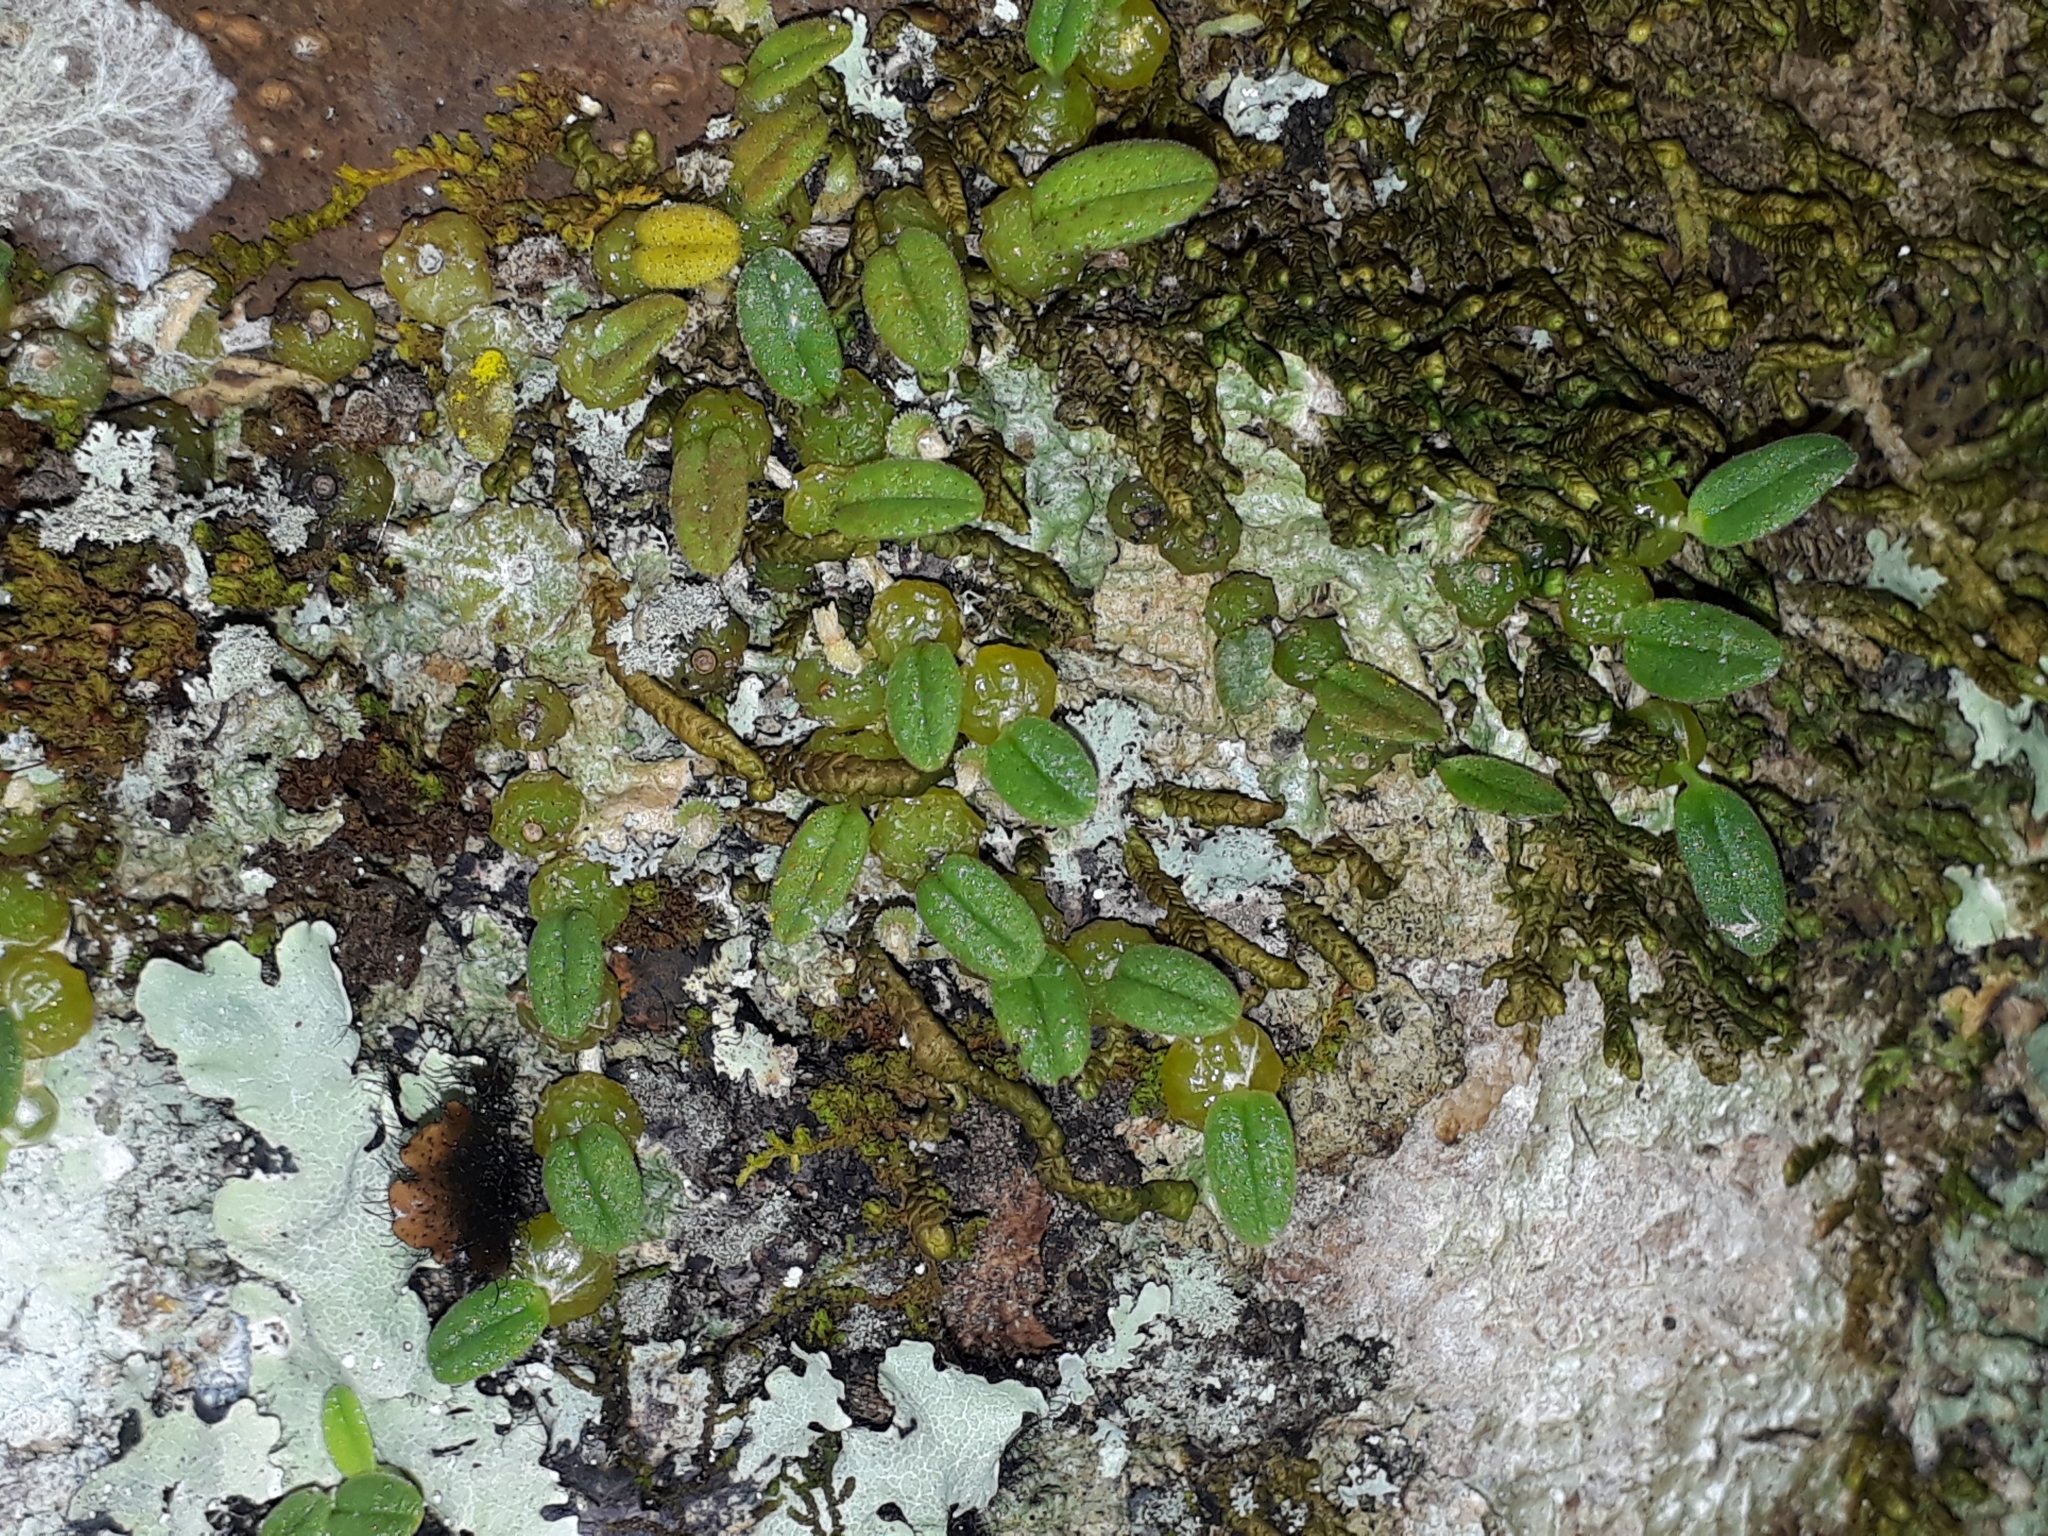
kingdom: Plantae
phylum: Tracheophyta
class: Liliopsida
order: Asparagales
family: Orchidaceae
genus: Bulbophyllum
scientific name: Bulbophyllum pygmaeum
